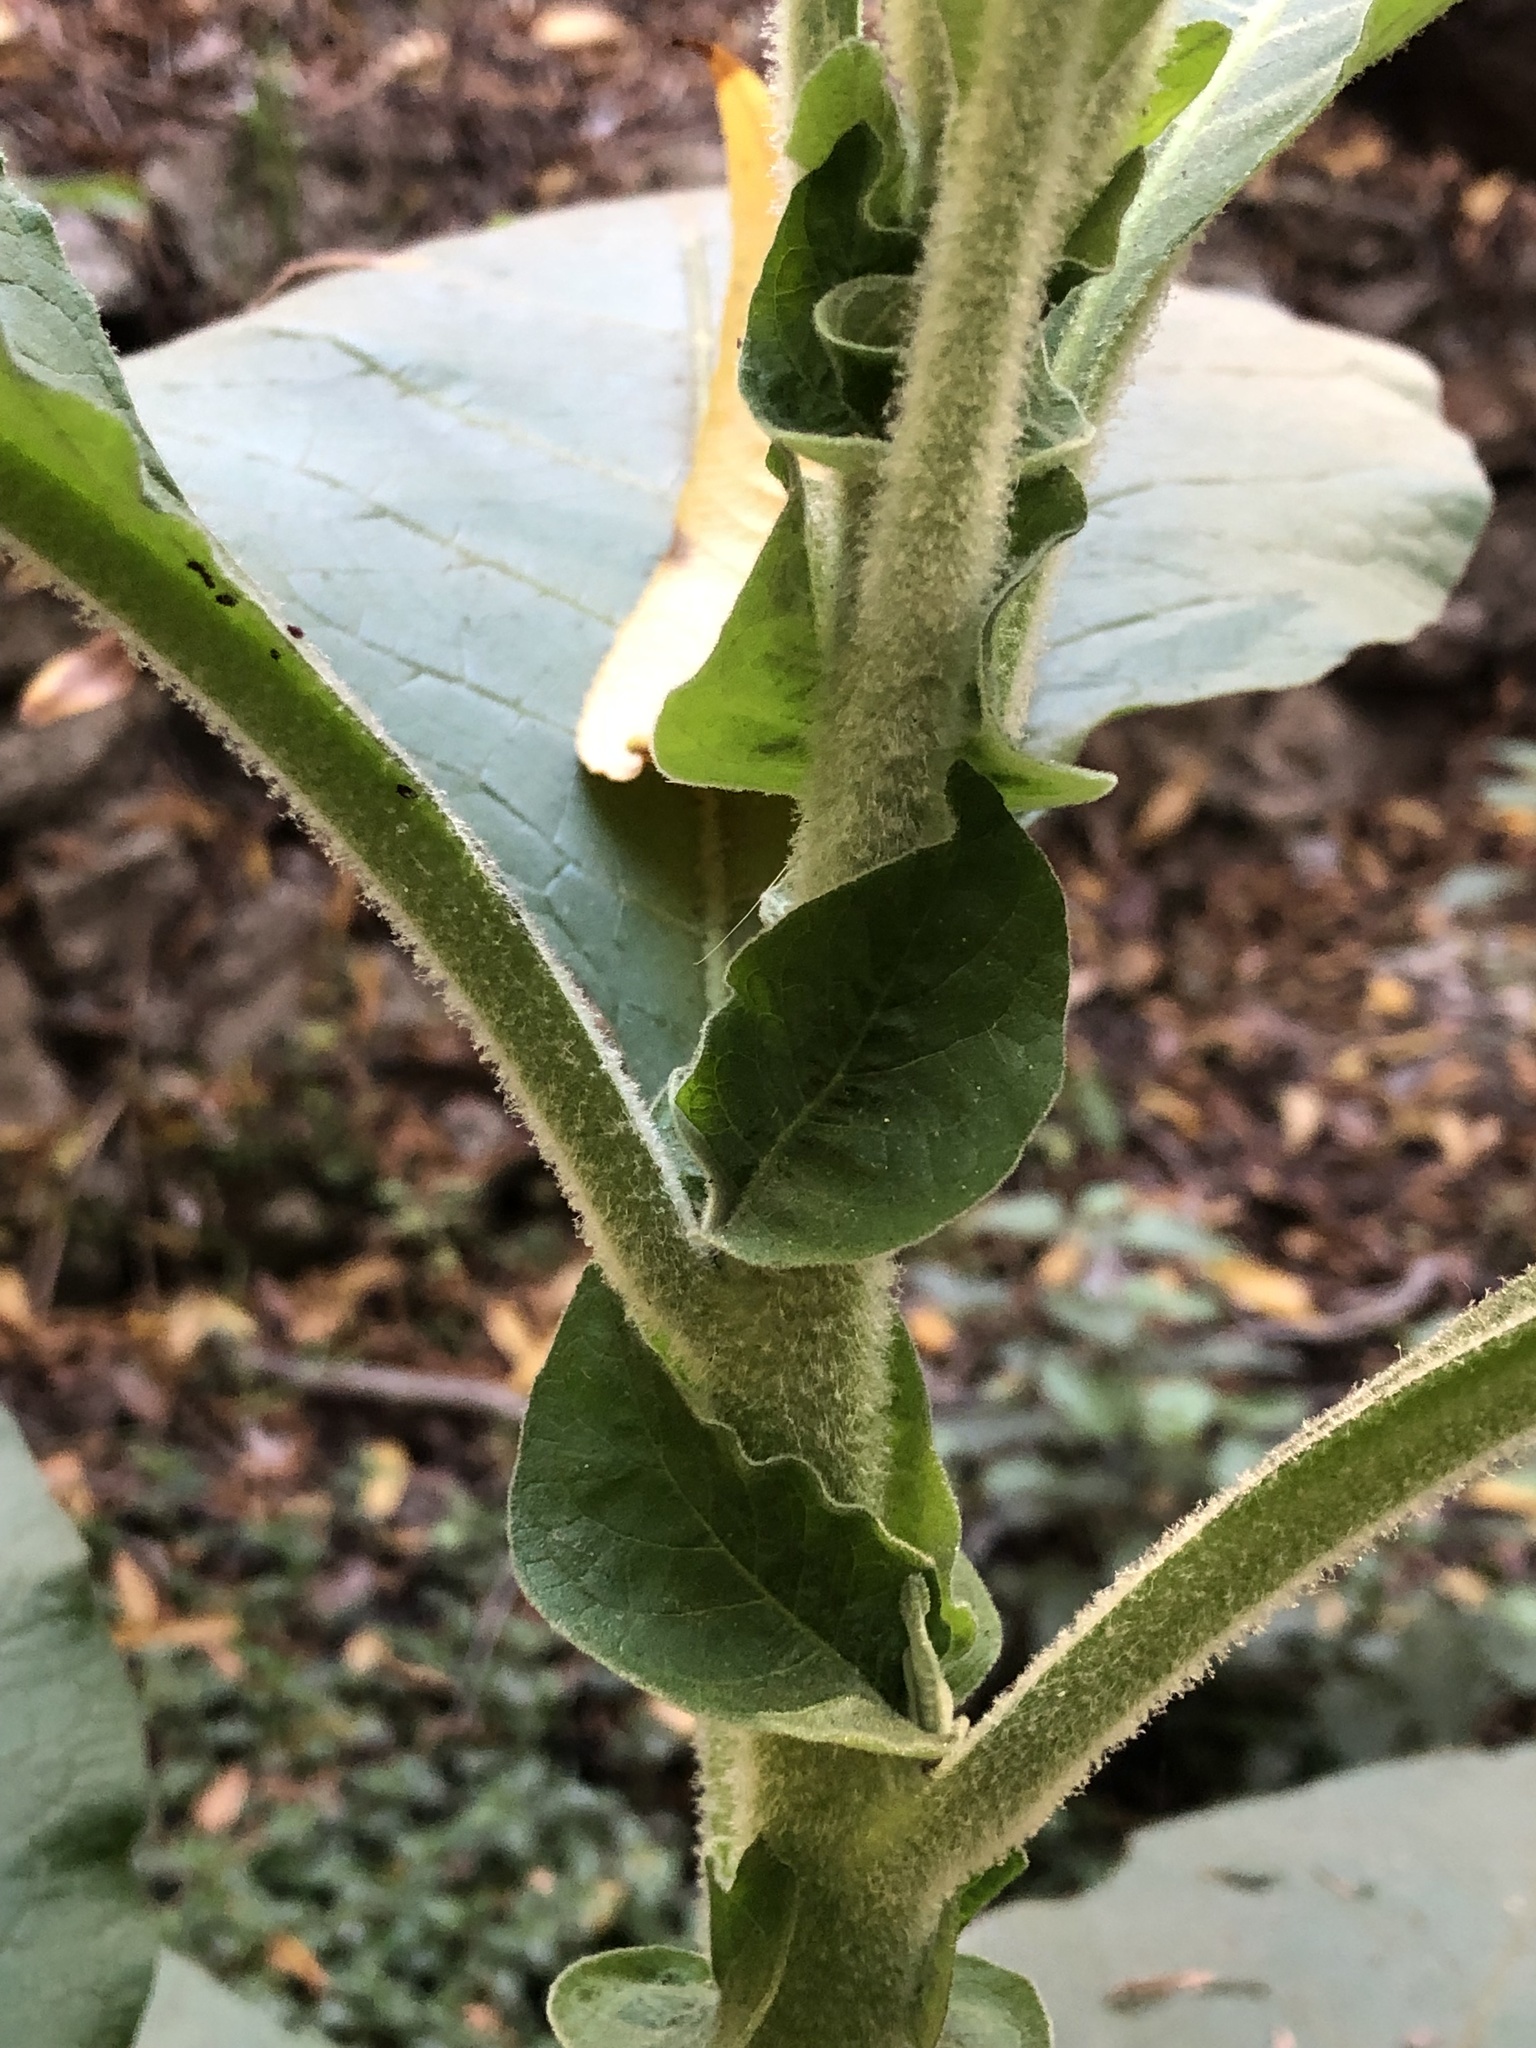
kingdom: Plantae
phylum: Tracheophyta
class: Magnoliopsida
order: Solanales
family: Solanaceae
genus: Solanum
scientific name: Solanum mauritianum
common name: Earleaf nightshade
